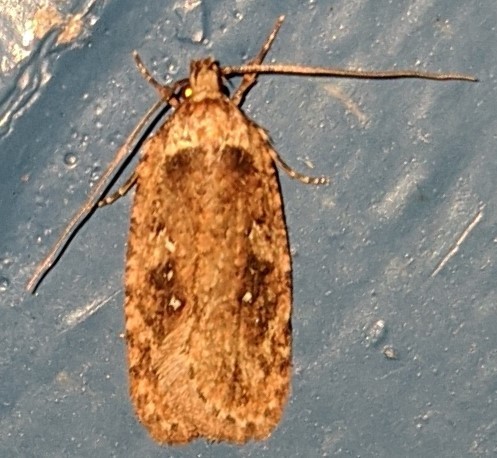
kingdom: Animalia
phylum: Arthropoda
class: Insecta
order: Lepidoptera
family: Depressariidae
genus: Agonopterix
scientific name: Agonopterix pulvipennella
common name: Goldenrod leafffolder
